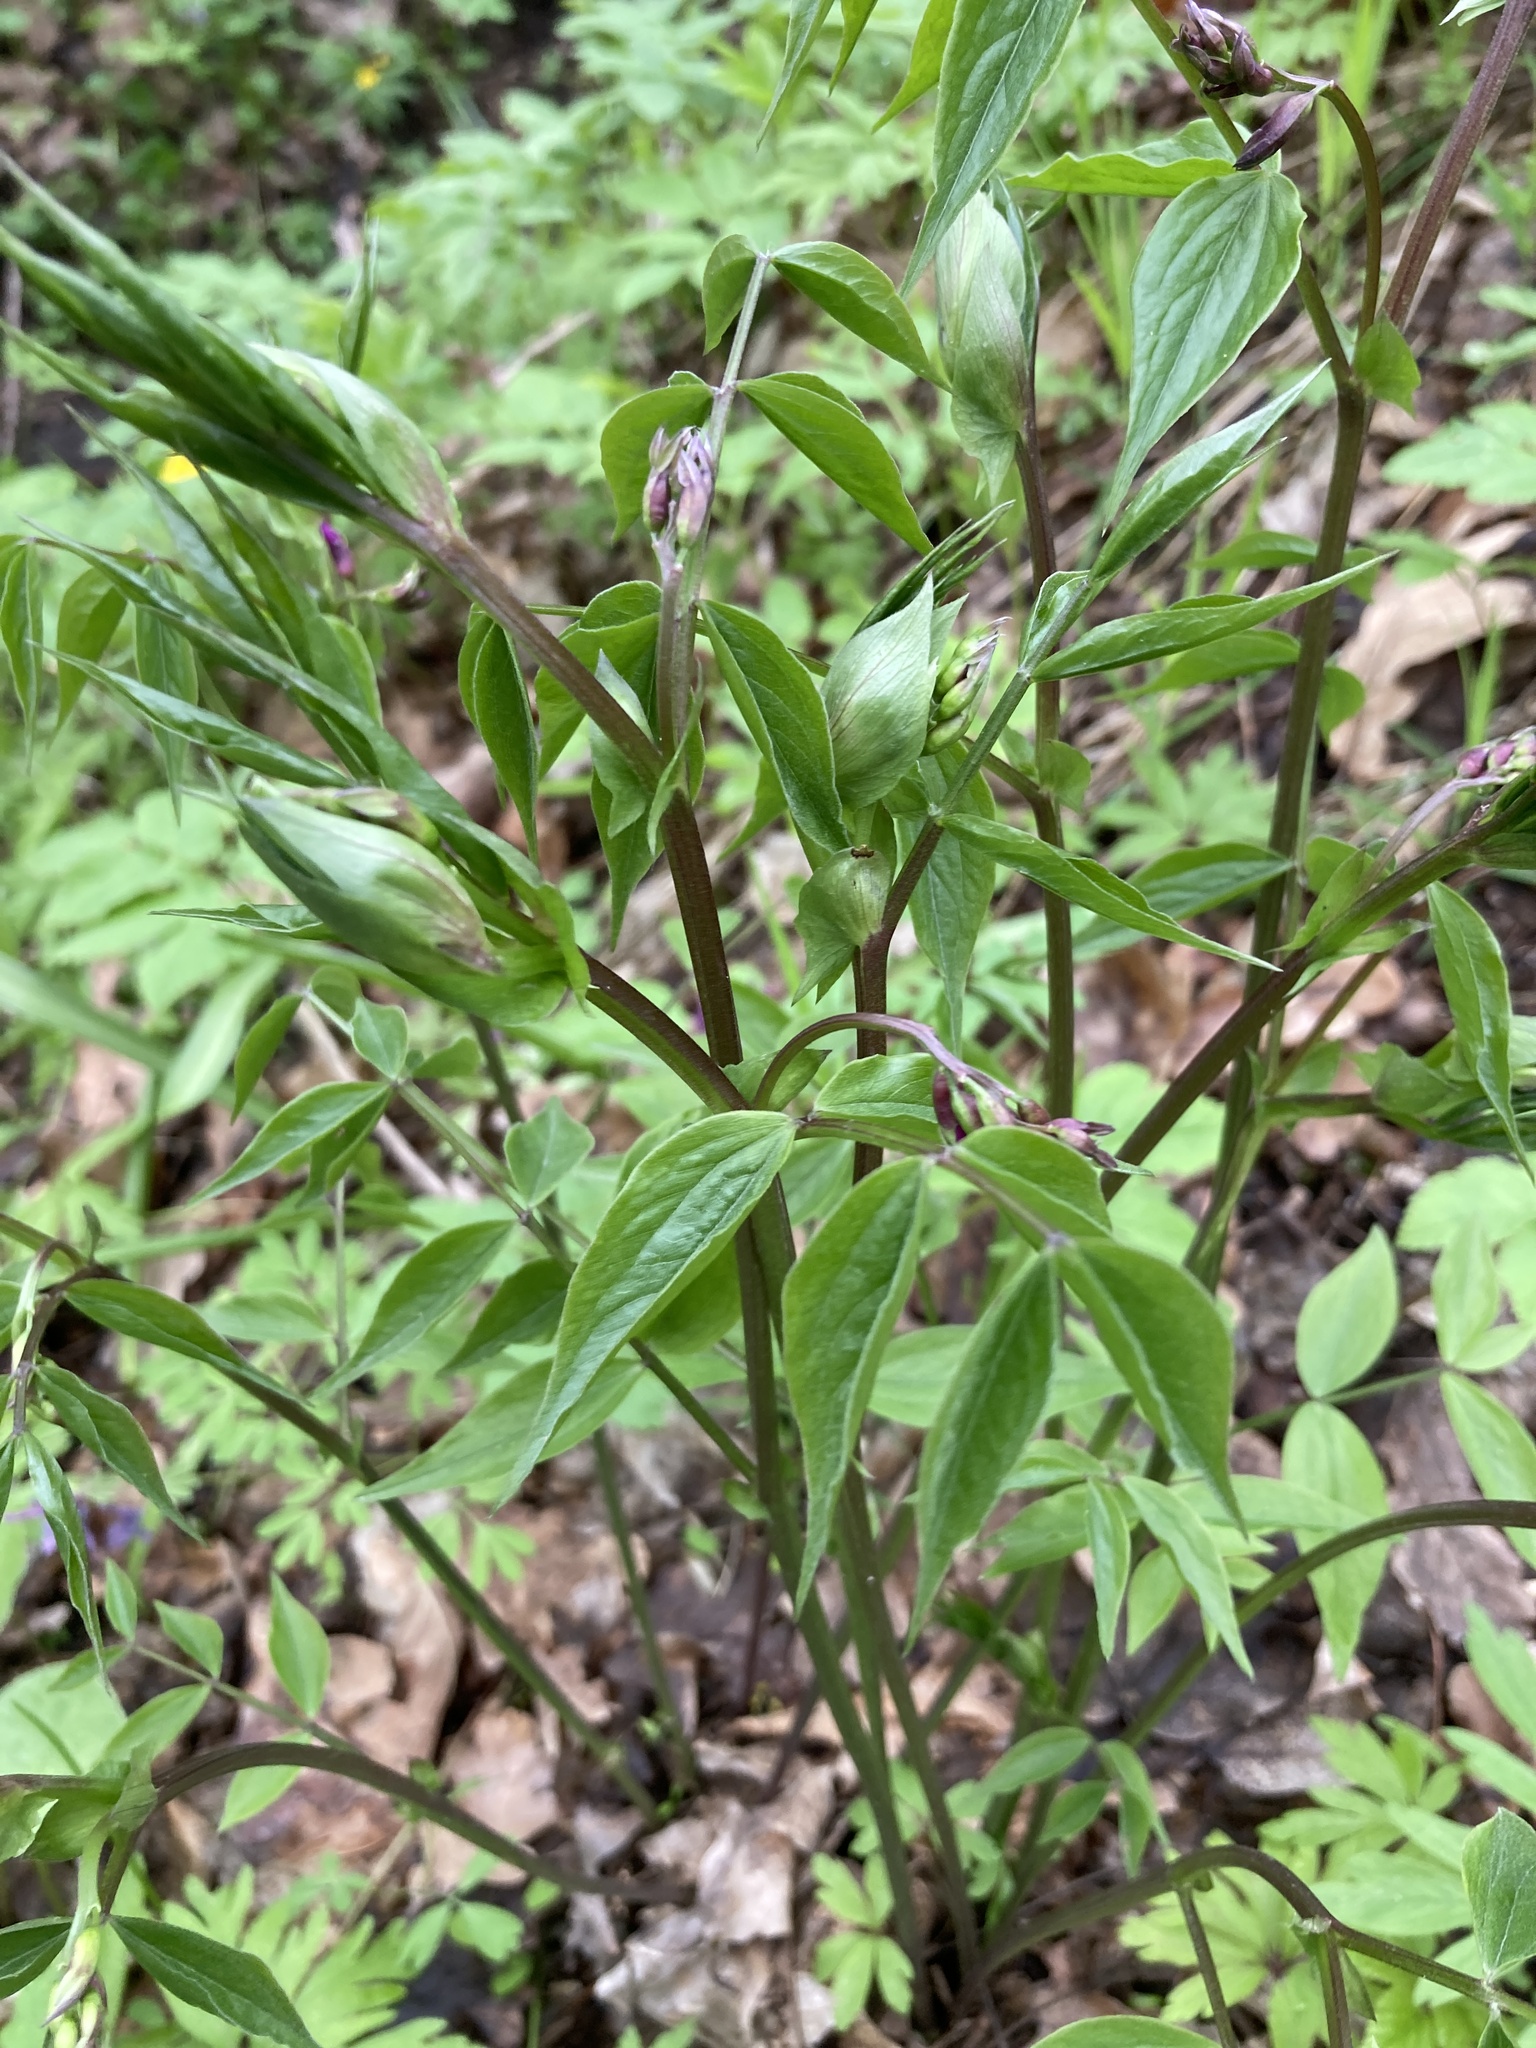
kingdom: Plantae
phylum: Tracheophyta
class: Magnoliopsida
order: Fabales
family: Fabaceae
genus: Lathyrus
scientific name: Lathyrus vernus
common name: Spring pea
